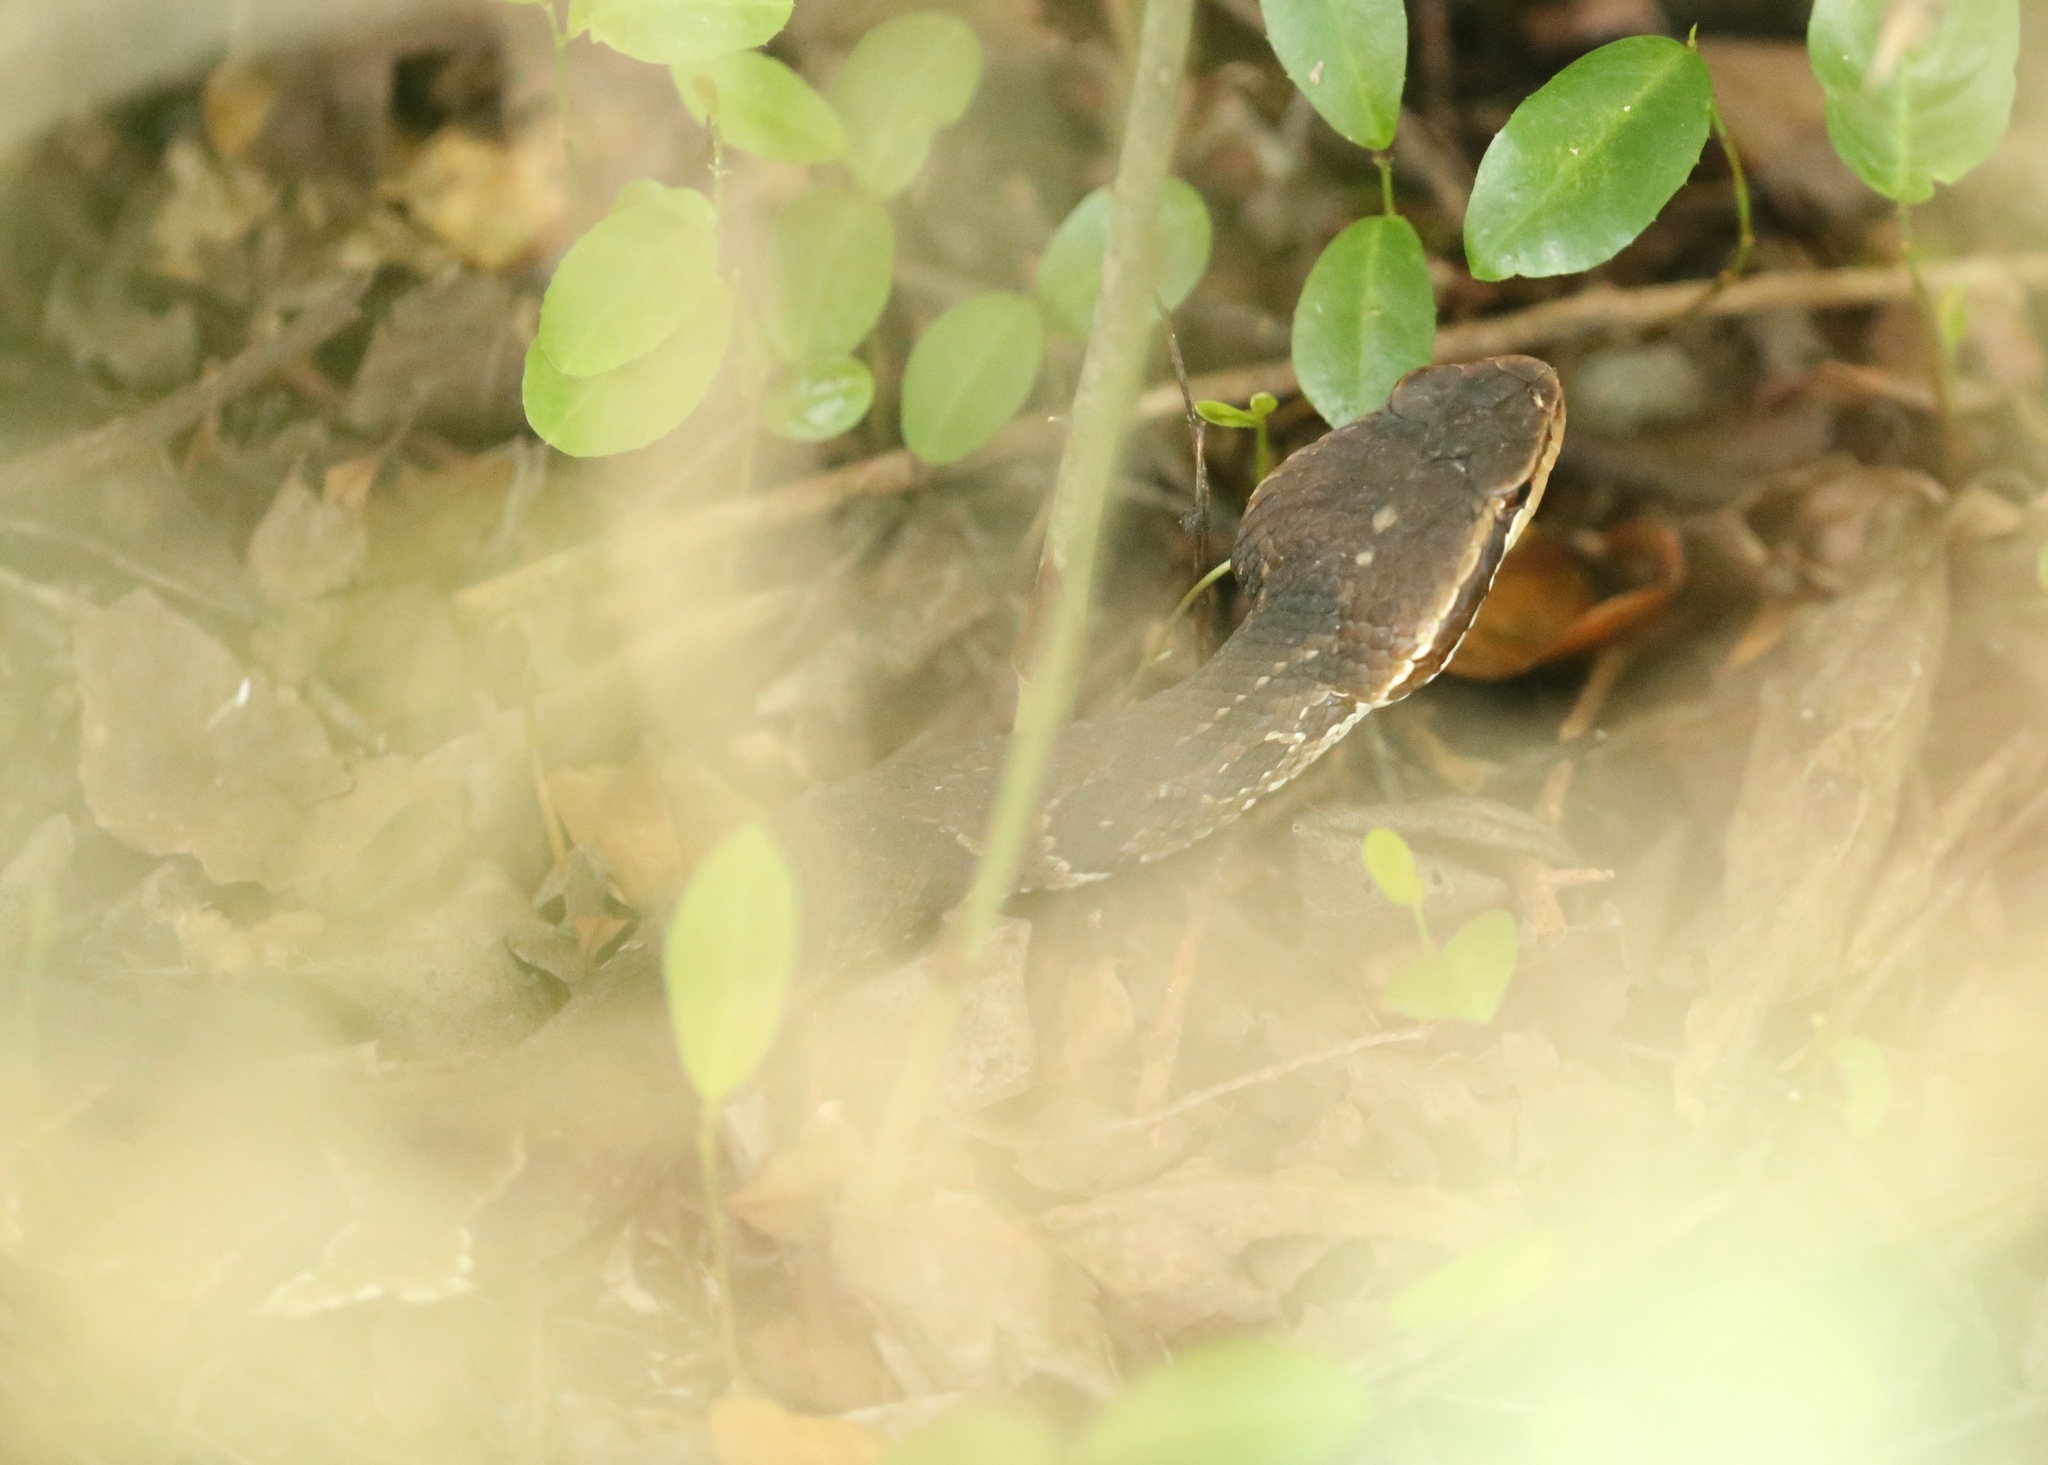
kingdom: Animalia
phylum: Chordata
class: Squamata
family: Viperidae
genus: Agkistrodon
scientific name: Agkistrodon conanti
